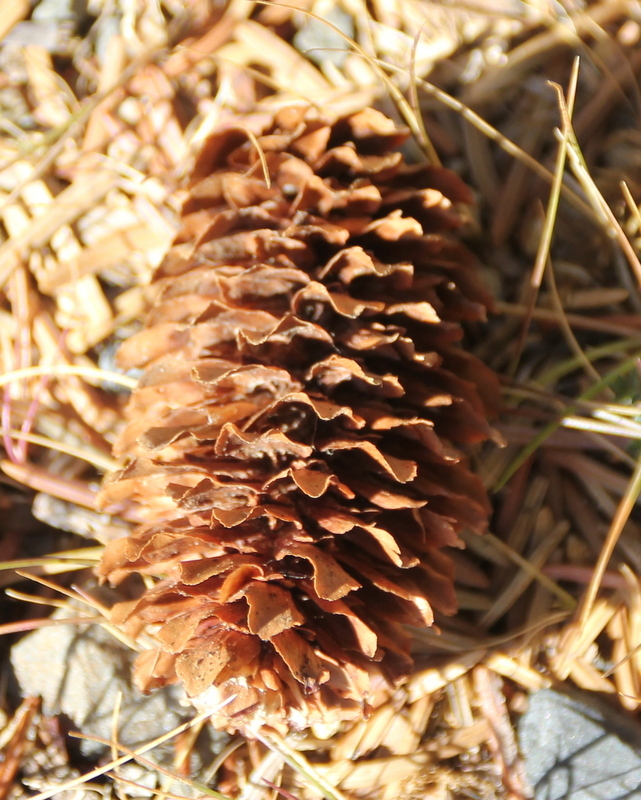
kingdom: Plantae
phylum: Tracheophyta
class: Pinopsida
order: Pinales
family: Pinaceae
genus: Picea
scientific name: Picea sitchensis
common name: Sitka spruce
